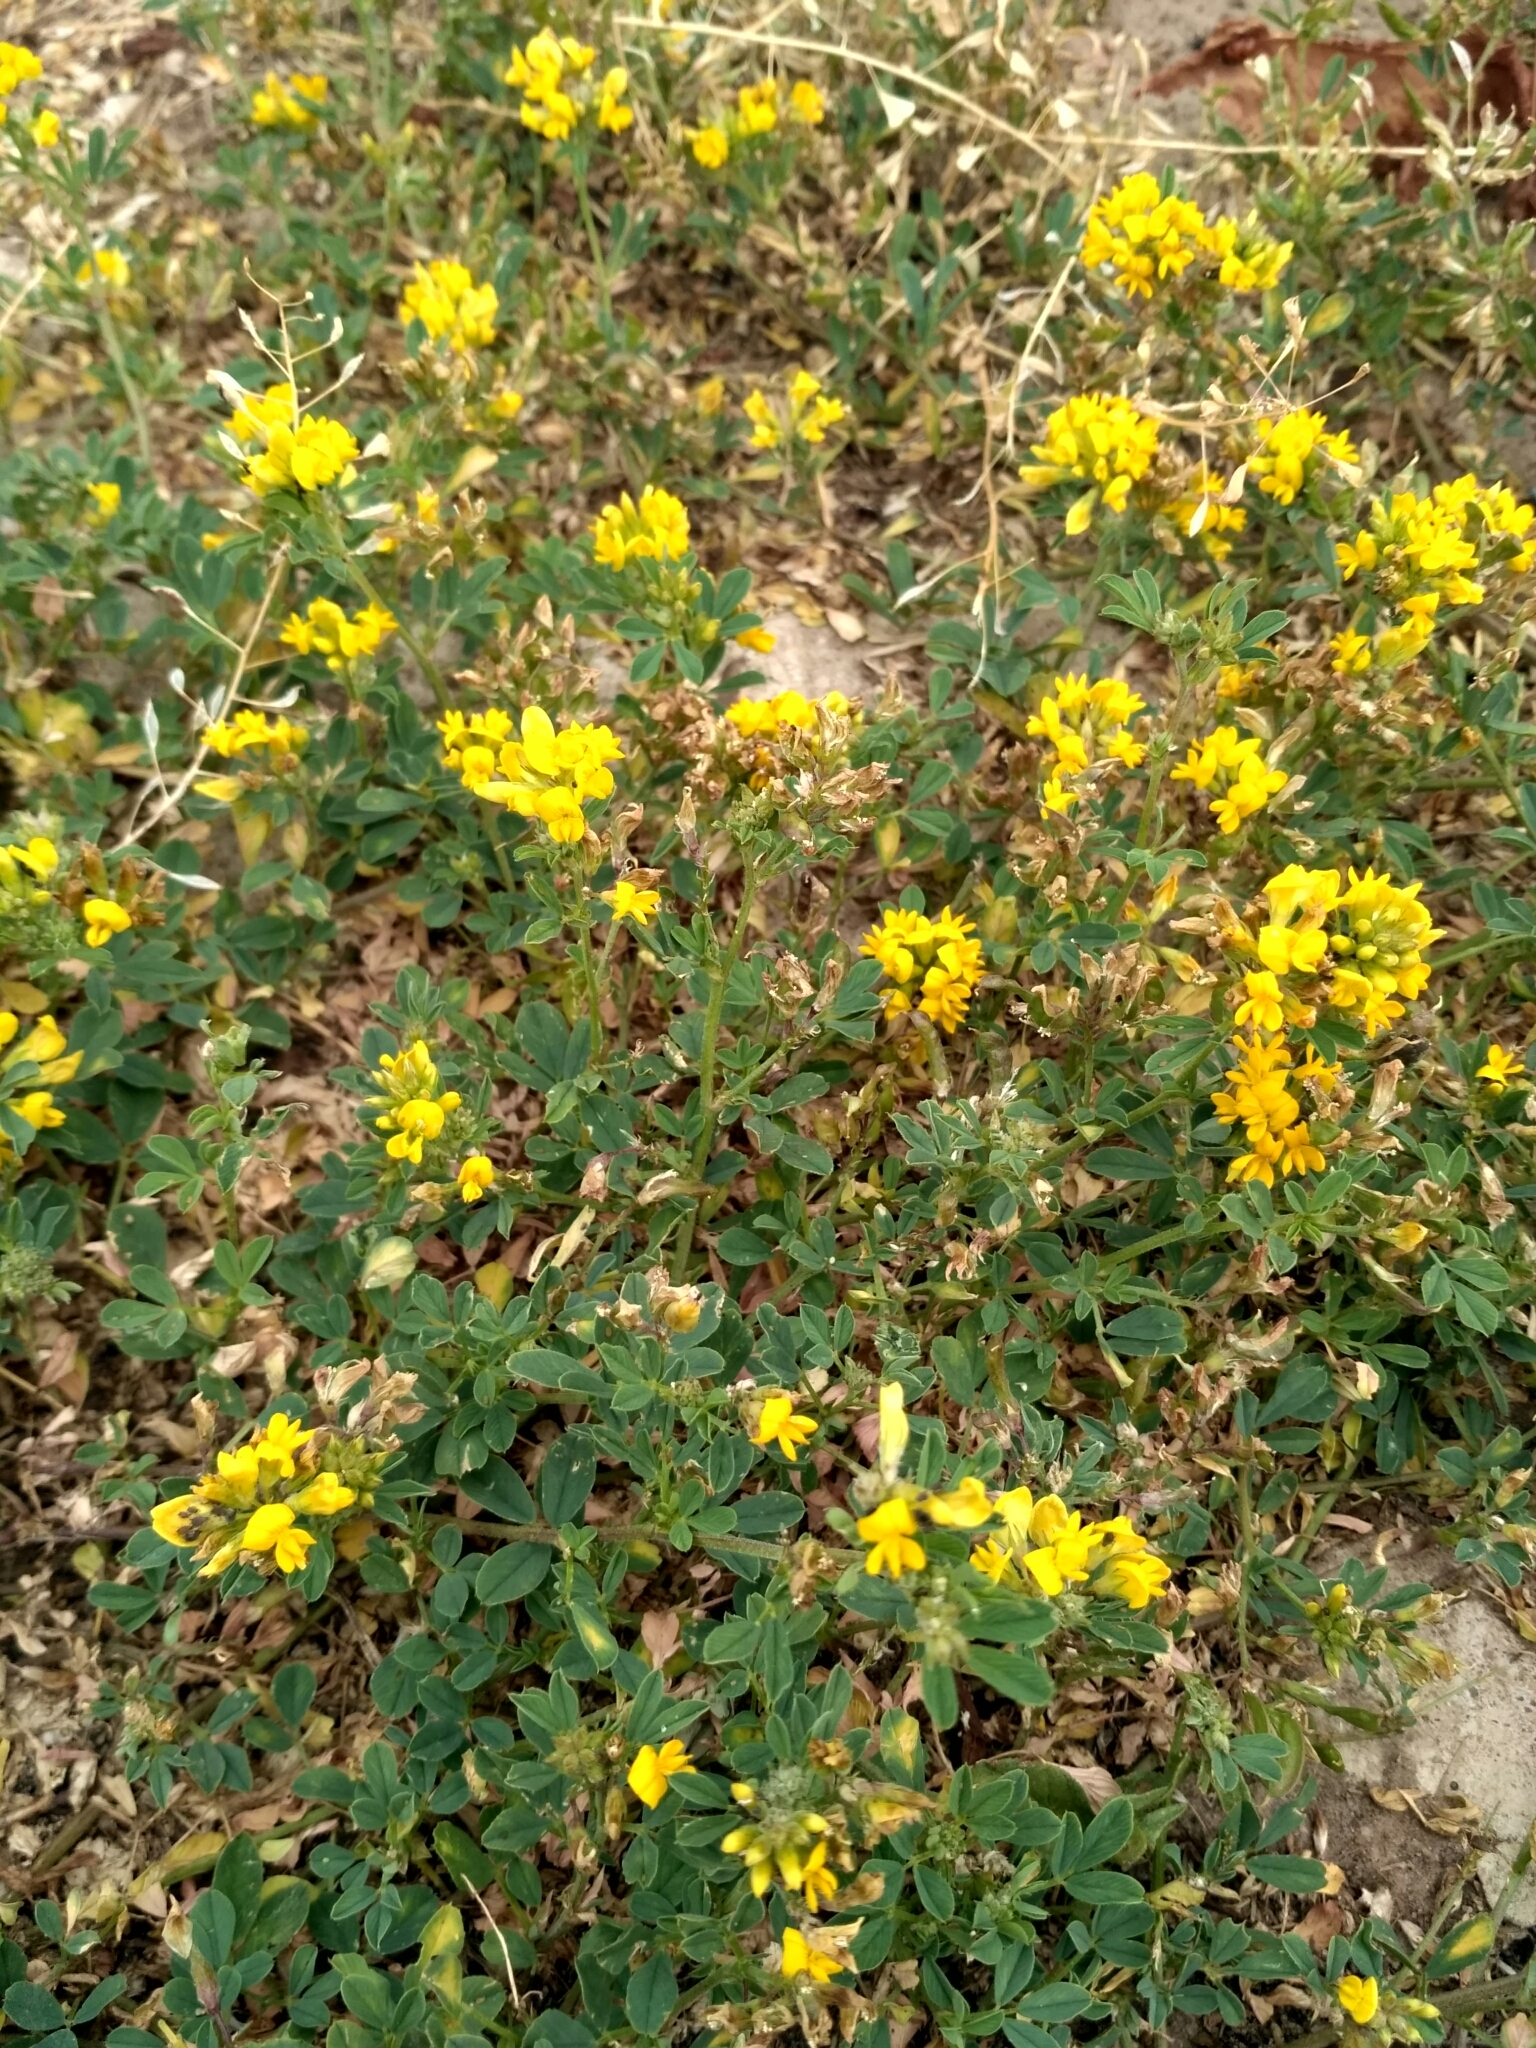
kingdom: Plantae
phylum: Tracheophyta
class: Magnoliopsida
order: Fabales
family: Fabaceae
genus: Medicago
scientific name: Medicago falcata
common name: Sickle medick
